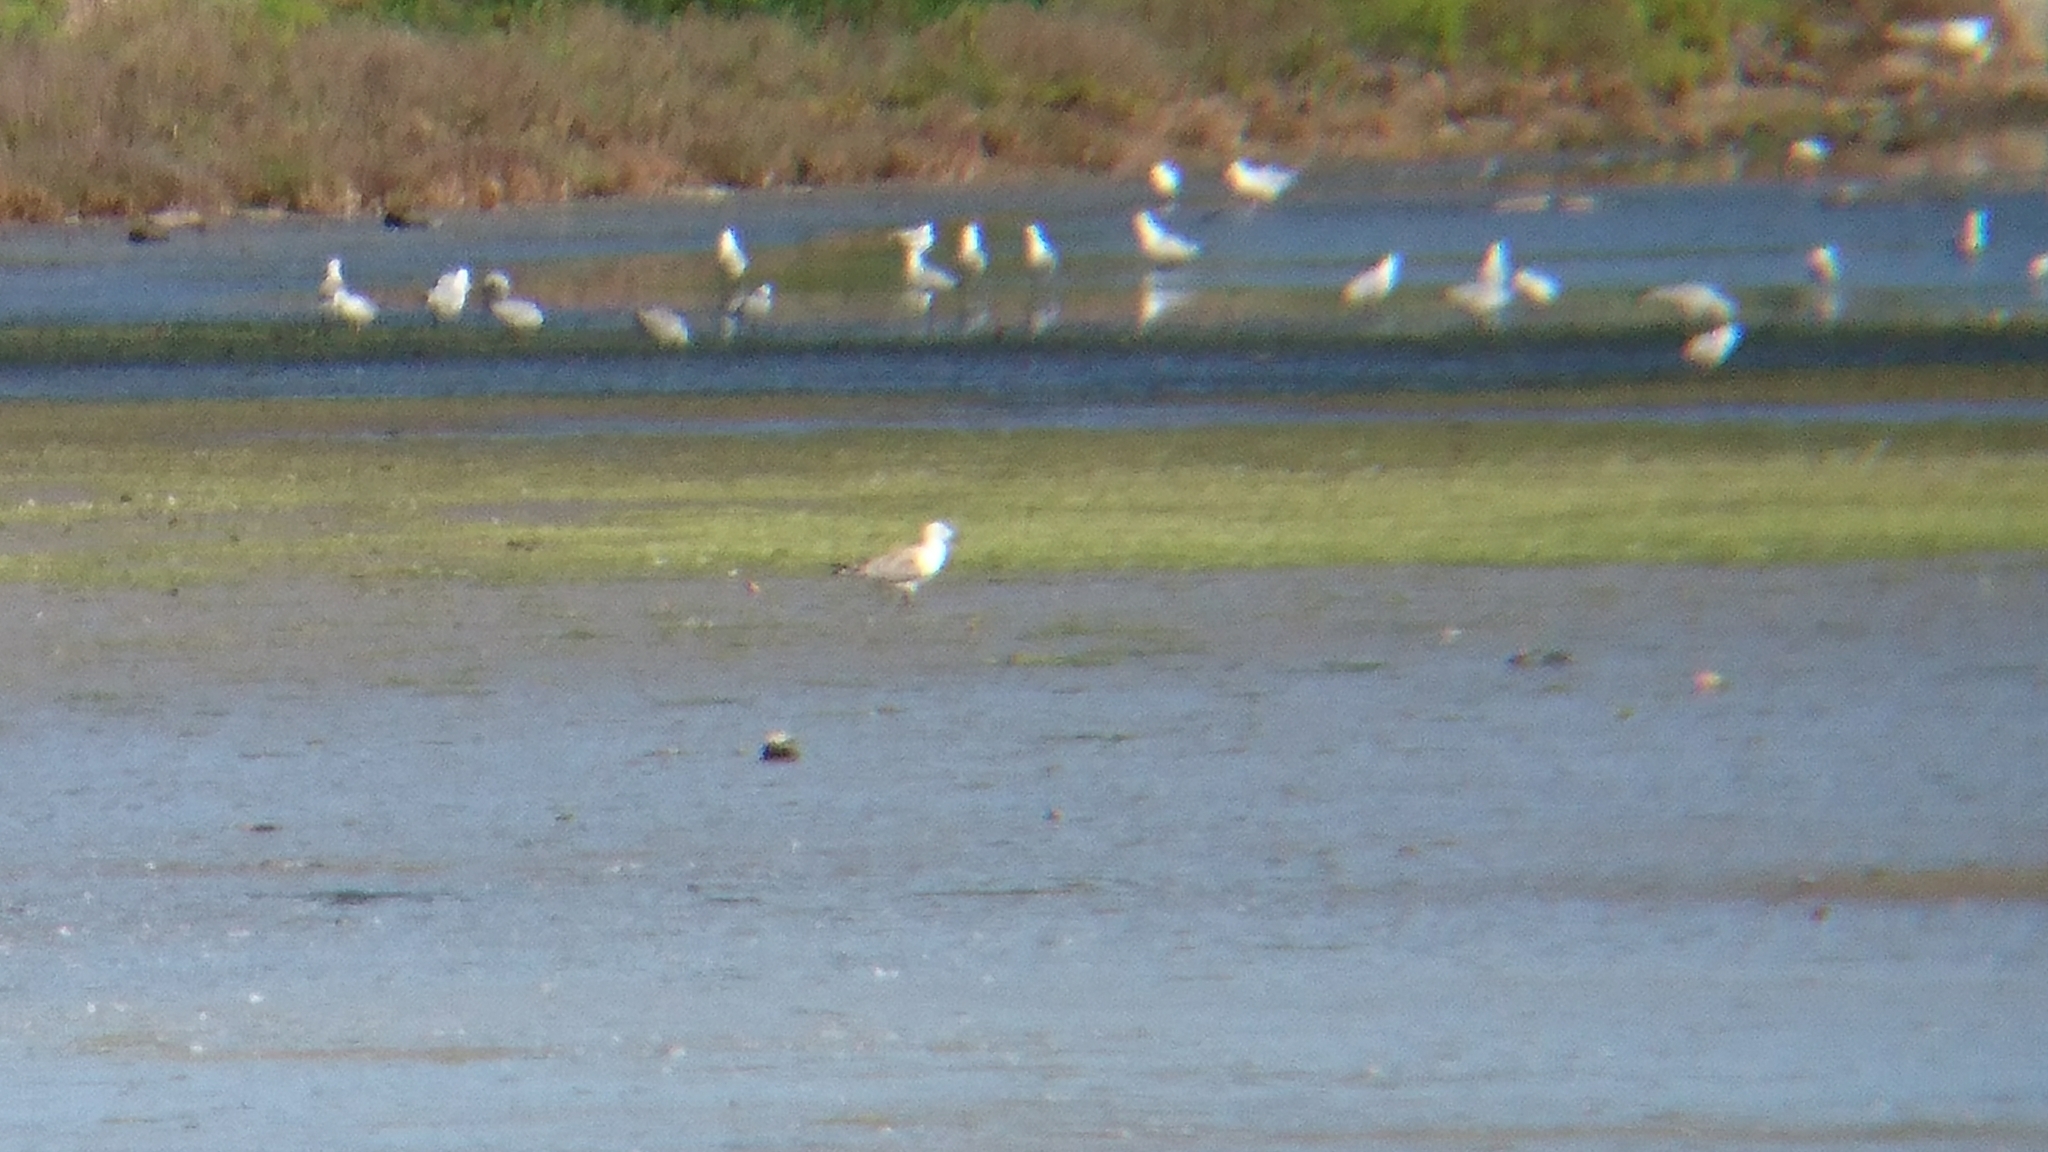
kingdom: Animalia
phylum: Chordata
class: Aves
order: Charadriiformes
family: Laridae
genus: Chroicocephalus
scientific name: Chroicocephalus novaehollandiae
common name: Silver gull
